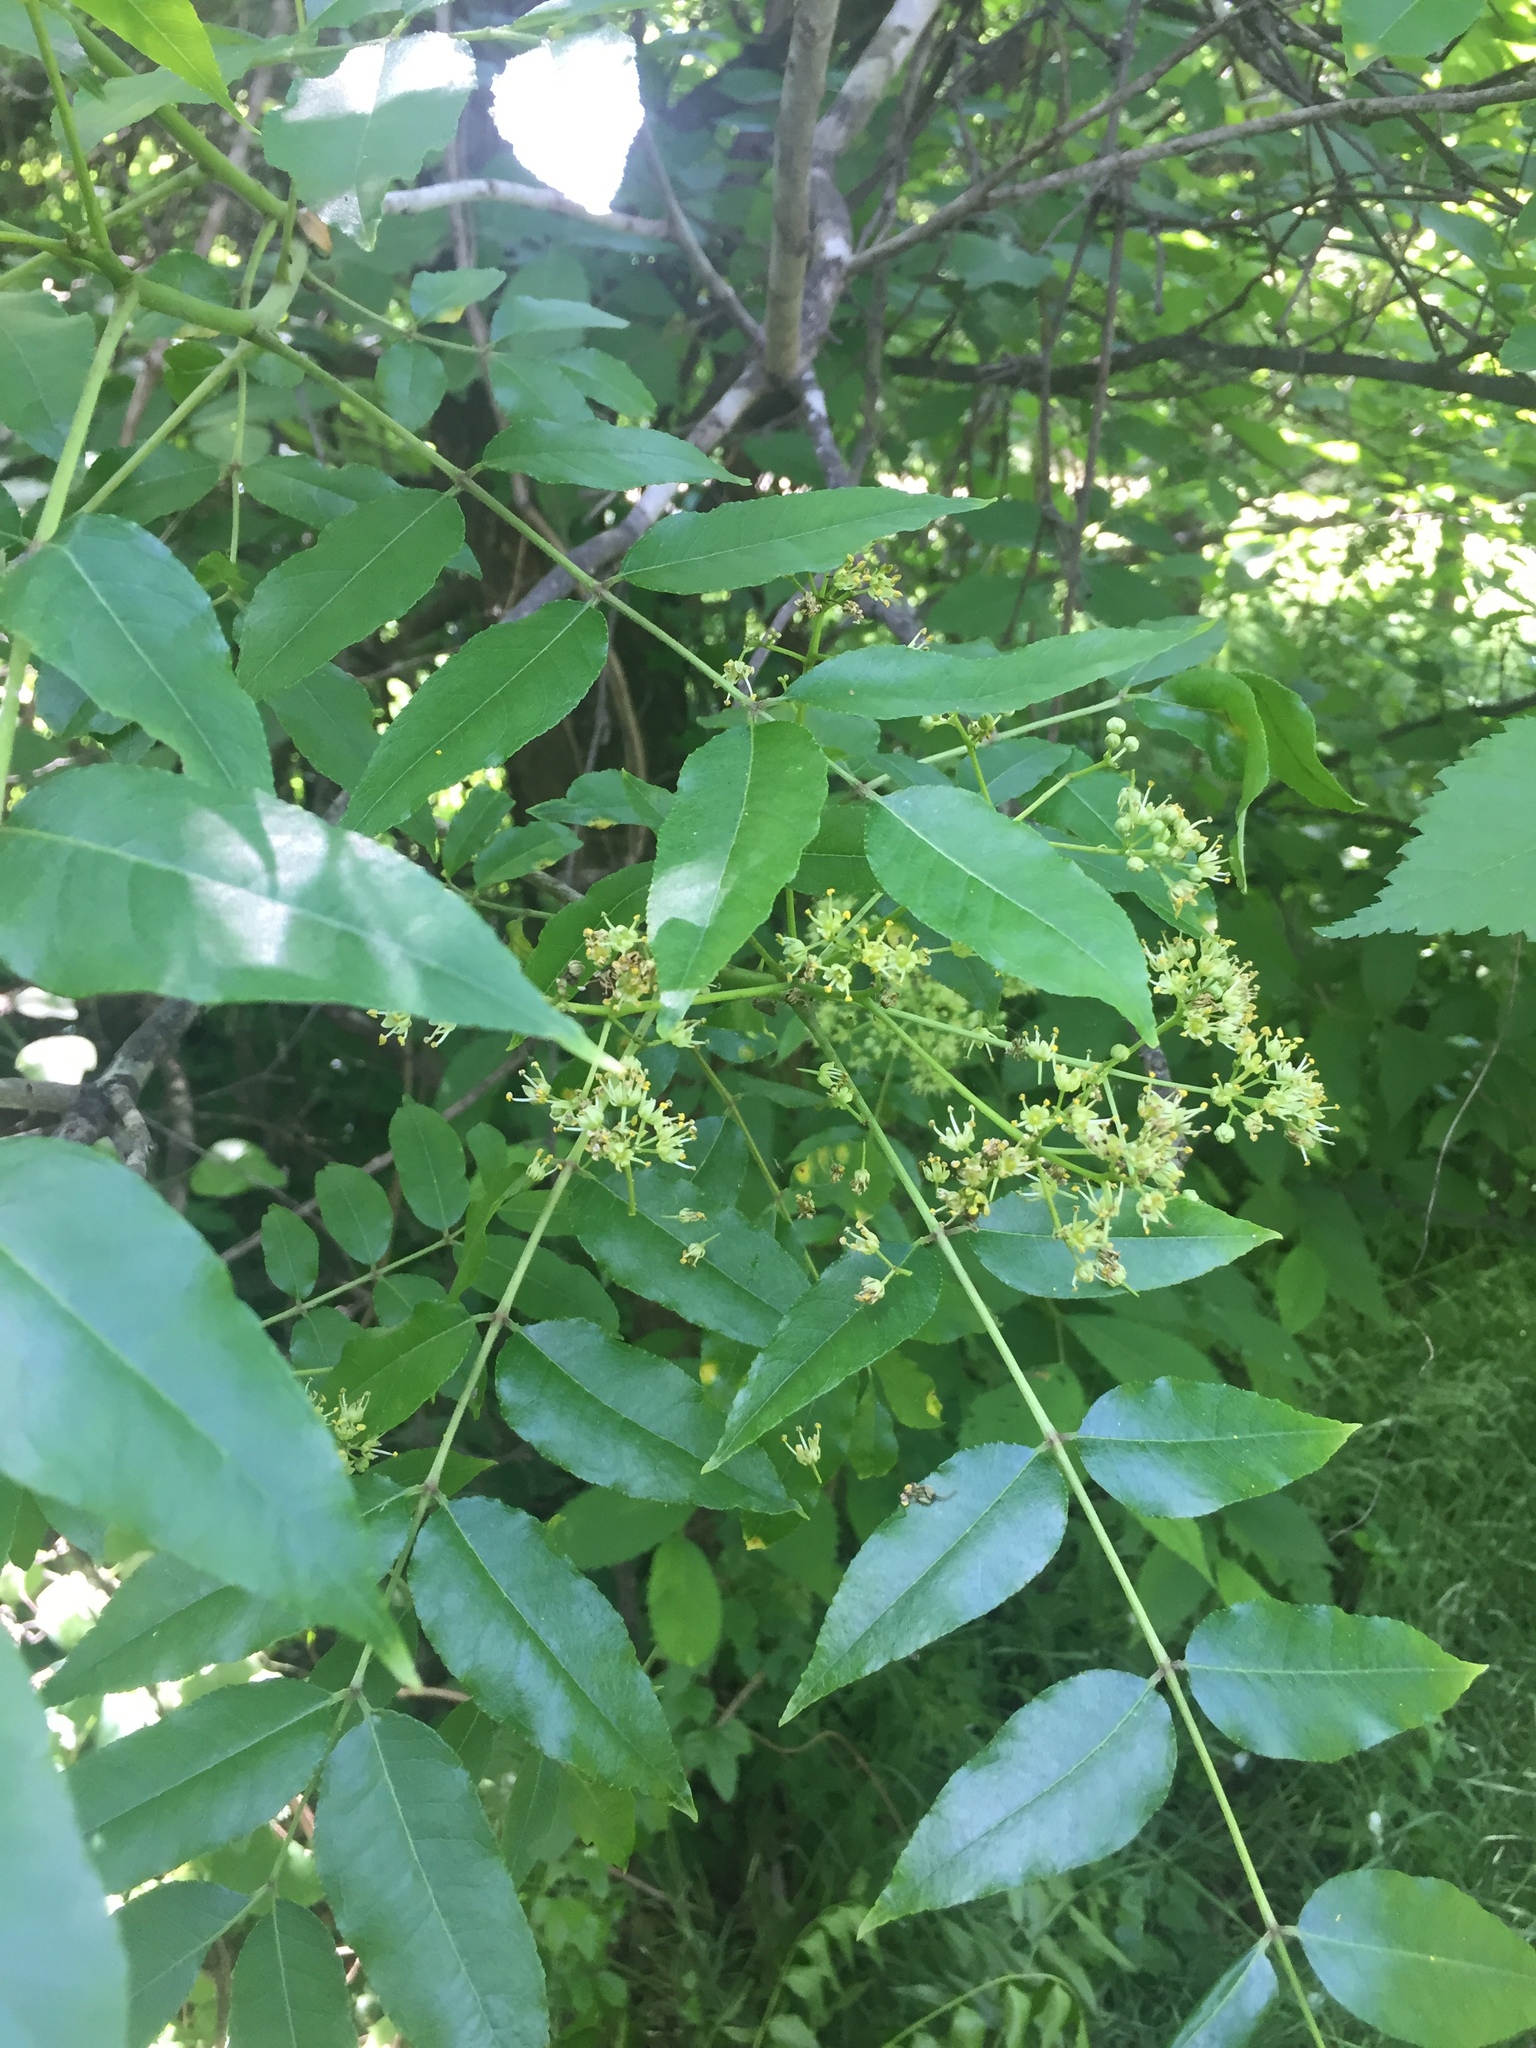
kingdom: Plantae
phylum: Tracheophyta
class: Magnoliopsida
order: Sapindales
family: Rutaceae
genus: Zanthoxylum
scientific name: Zanthoxylum clava-herculis
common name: Hercules'-club
